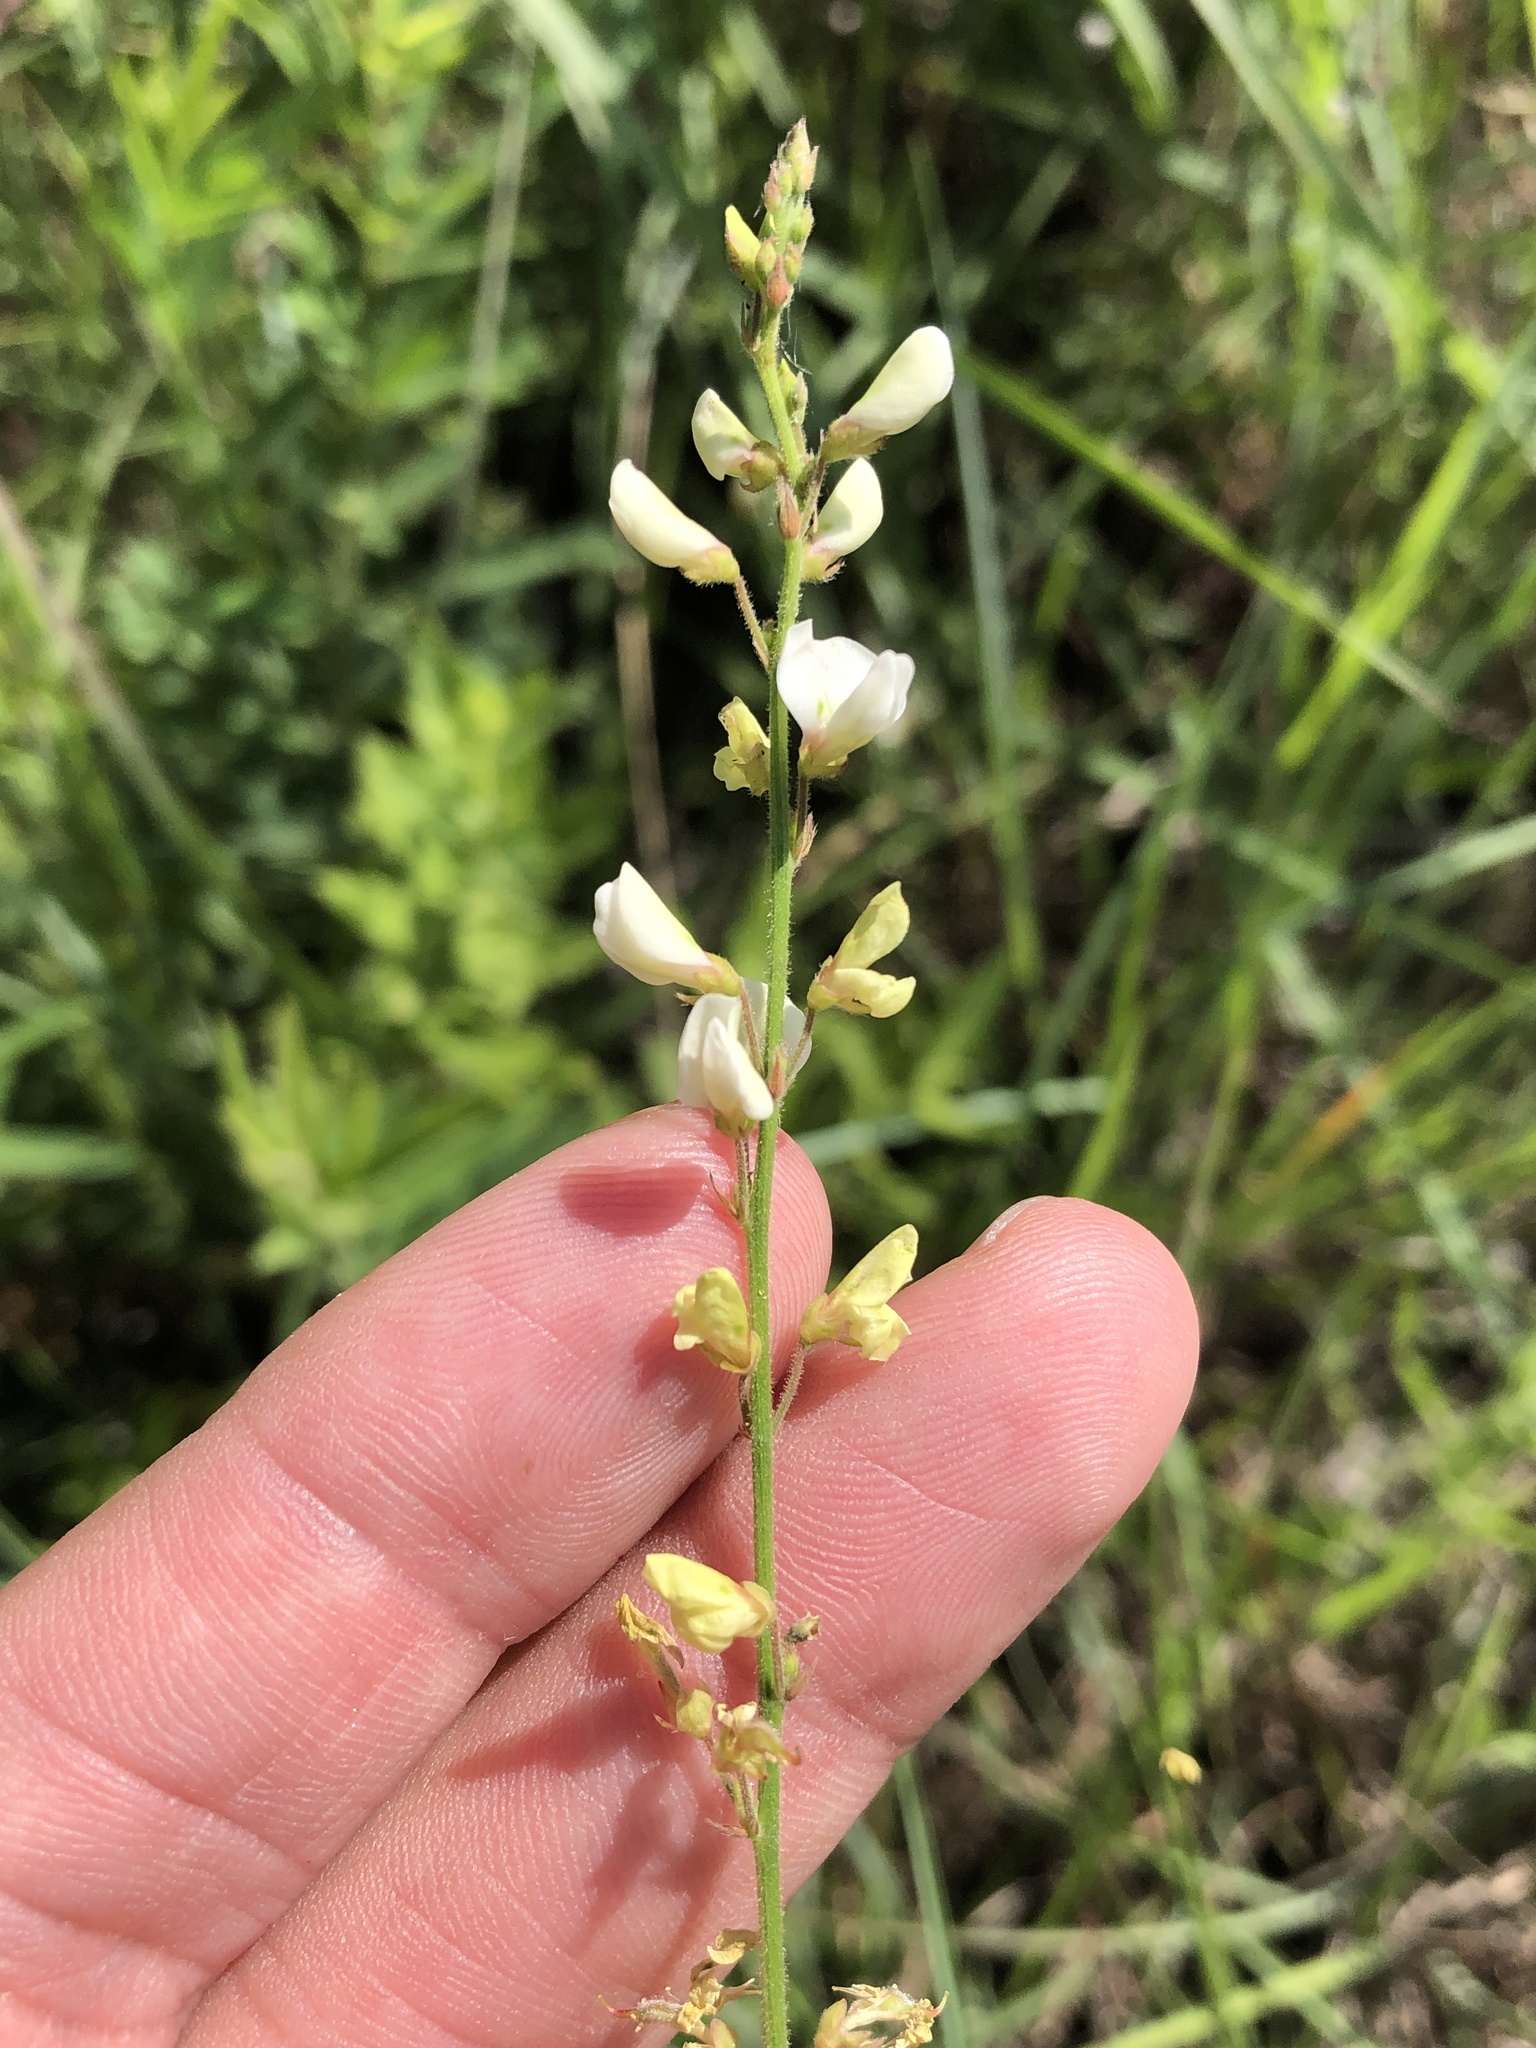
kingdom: Plantae
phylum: Tracheophyta
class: Magnoliopsida
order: Fabales
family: Fabaceae
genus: Desmodium
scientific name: Desmodium sessilifolium
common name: Sessile tick-clover
